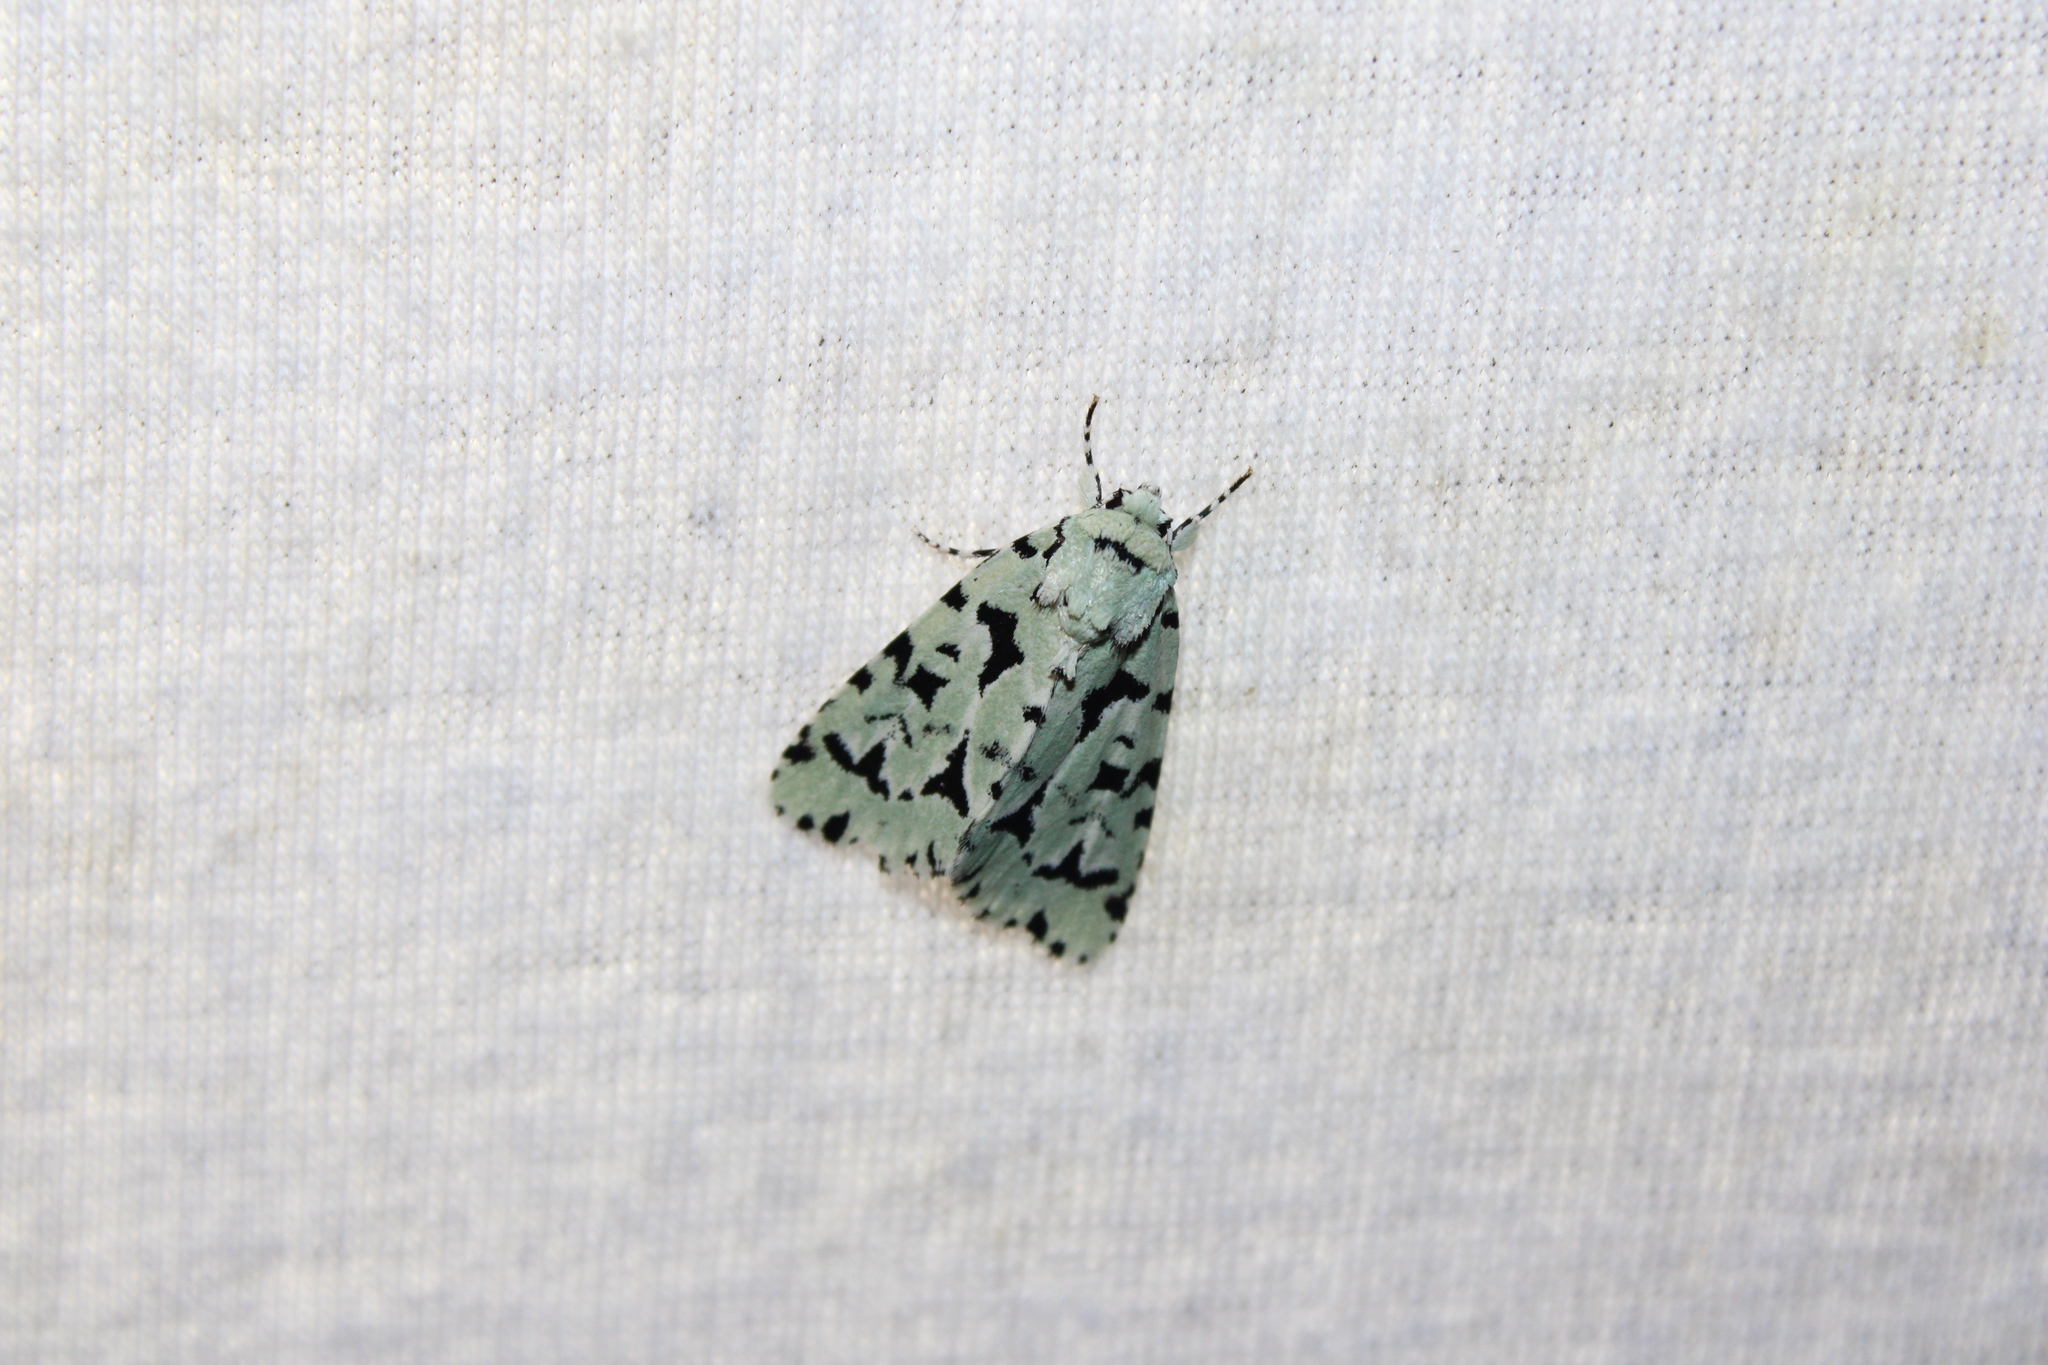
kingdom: Animalia
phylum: Arthropoda
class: Insecta
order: Lepidoptera
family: Noctuidae
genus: Acronicta
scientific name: Acronicta fallax
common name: Green marvel
